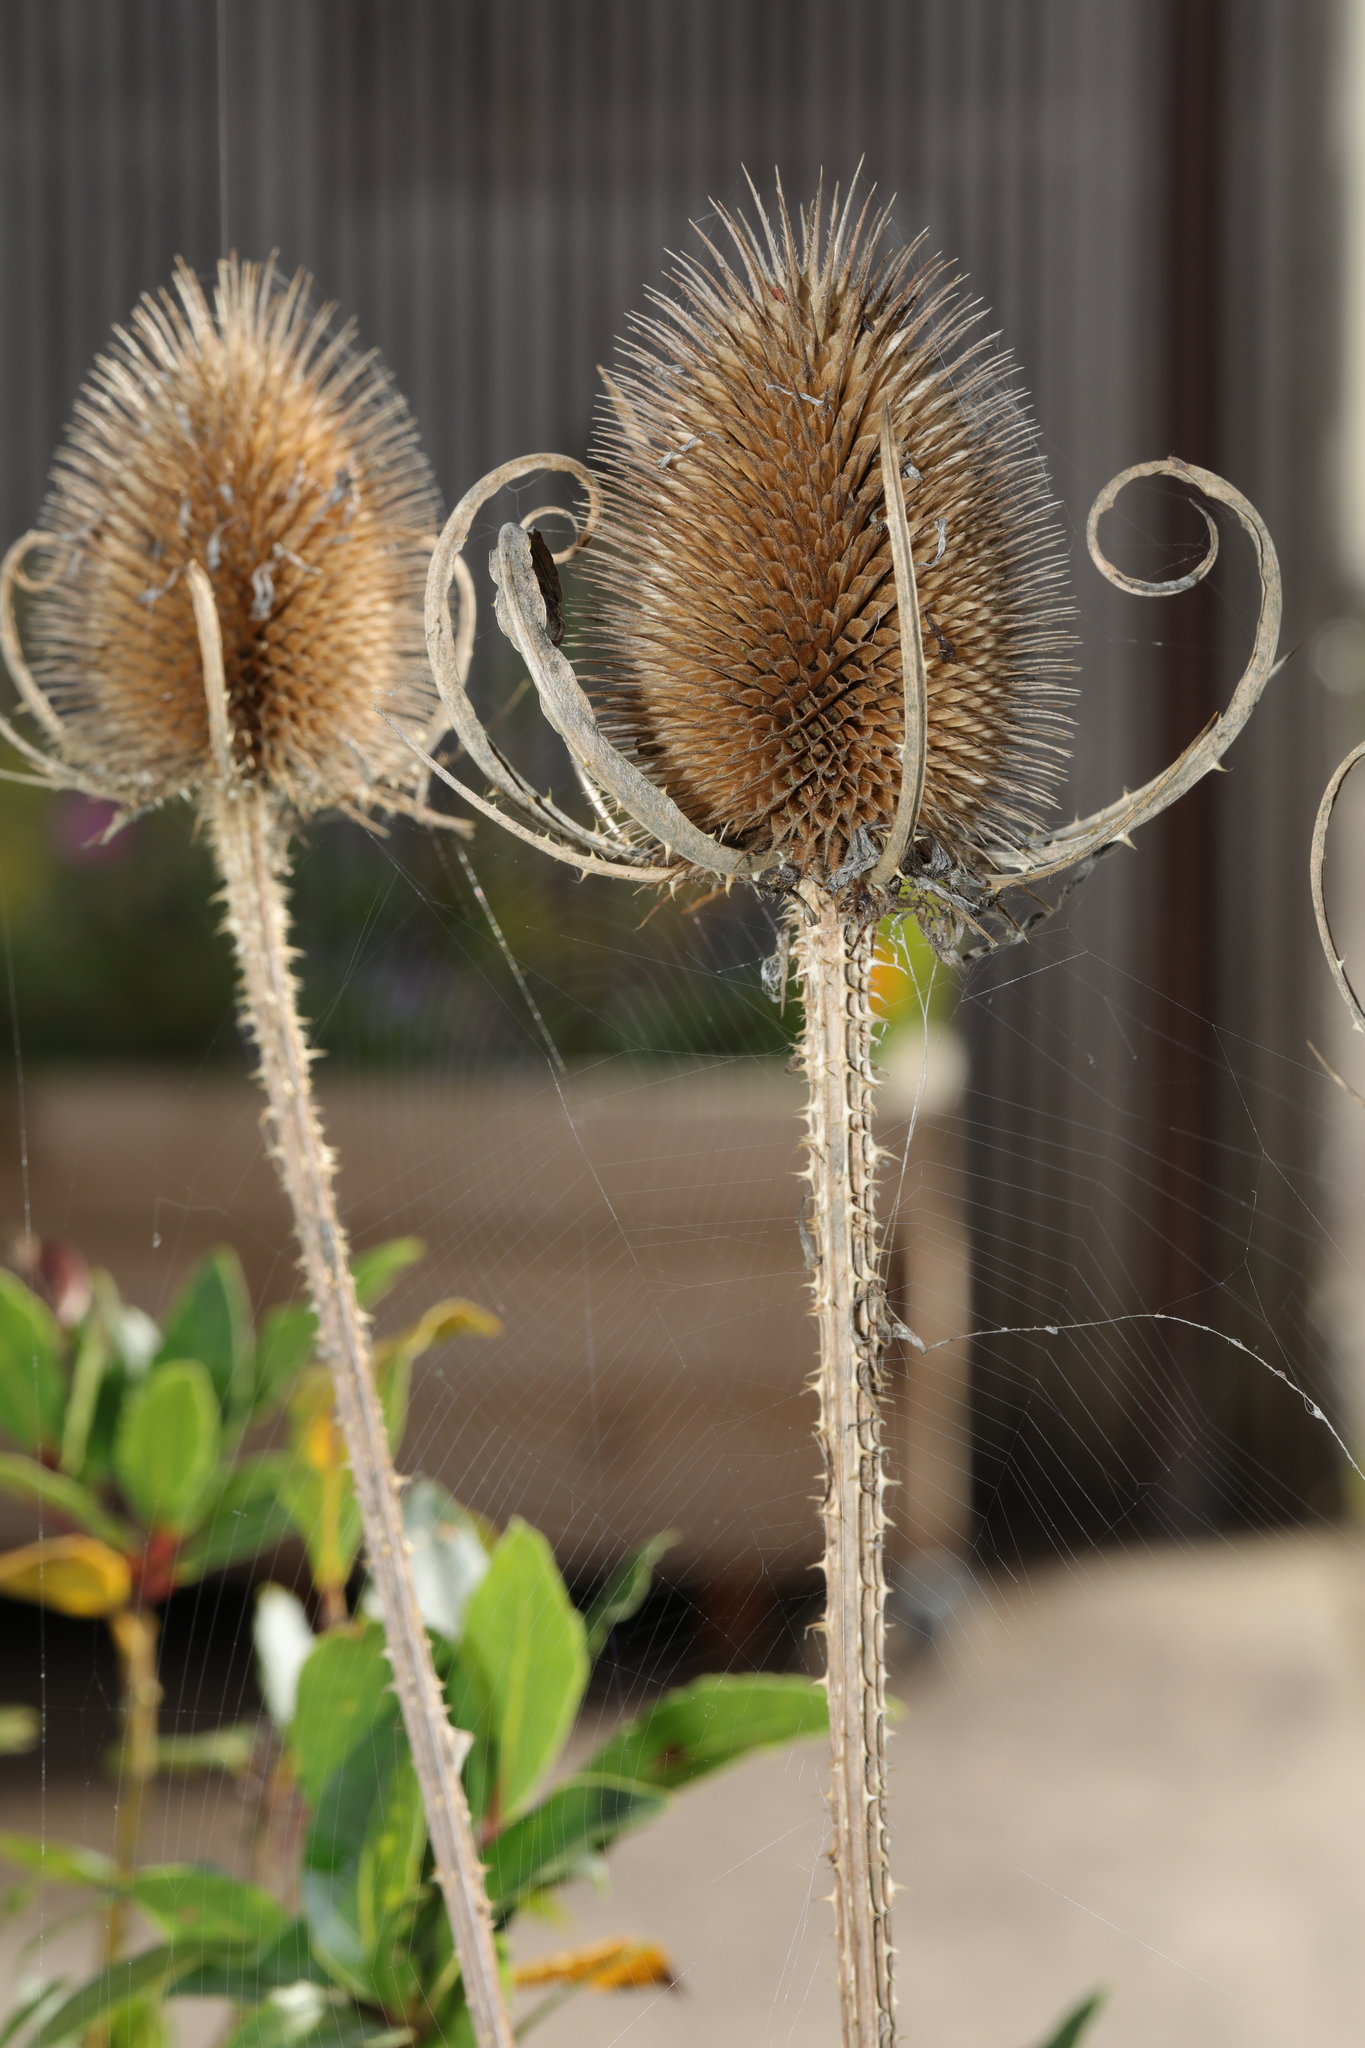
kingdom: Plantae
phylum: Tracheophyta
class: Magnoliopsida
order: Dipsacales
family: Caprifoliaceae
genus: Dipsacus
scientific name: Dipsacus fullonum
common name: Teasel
